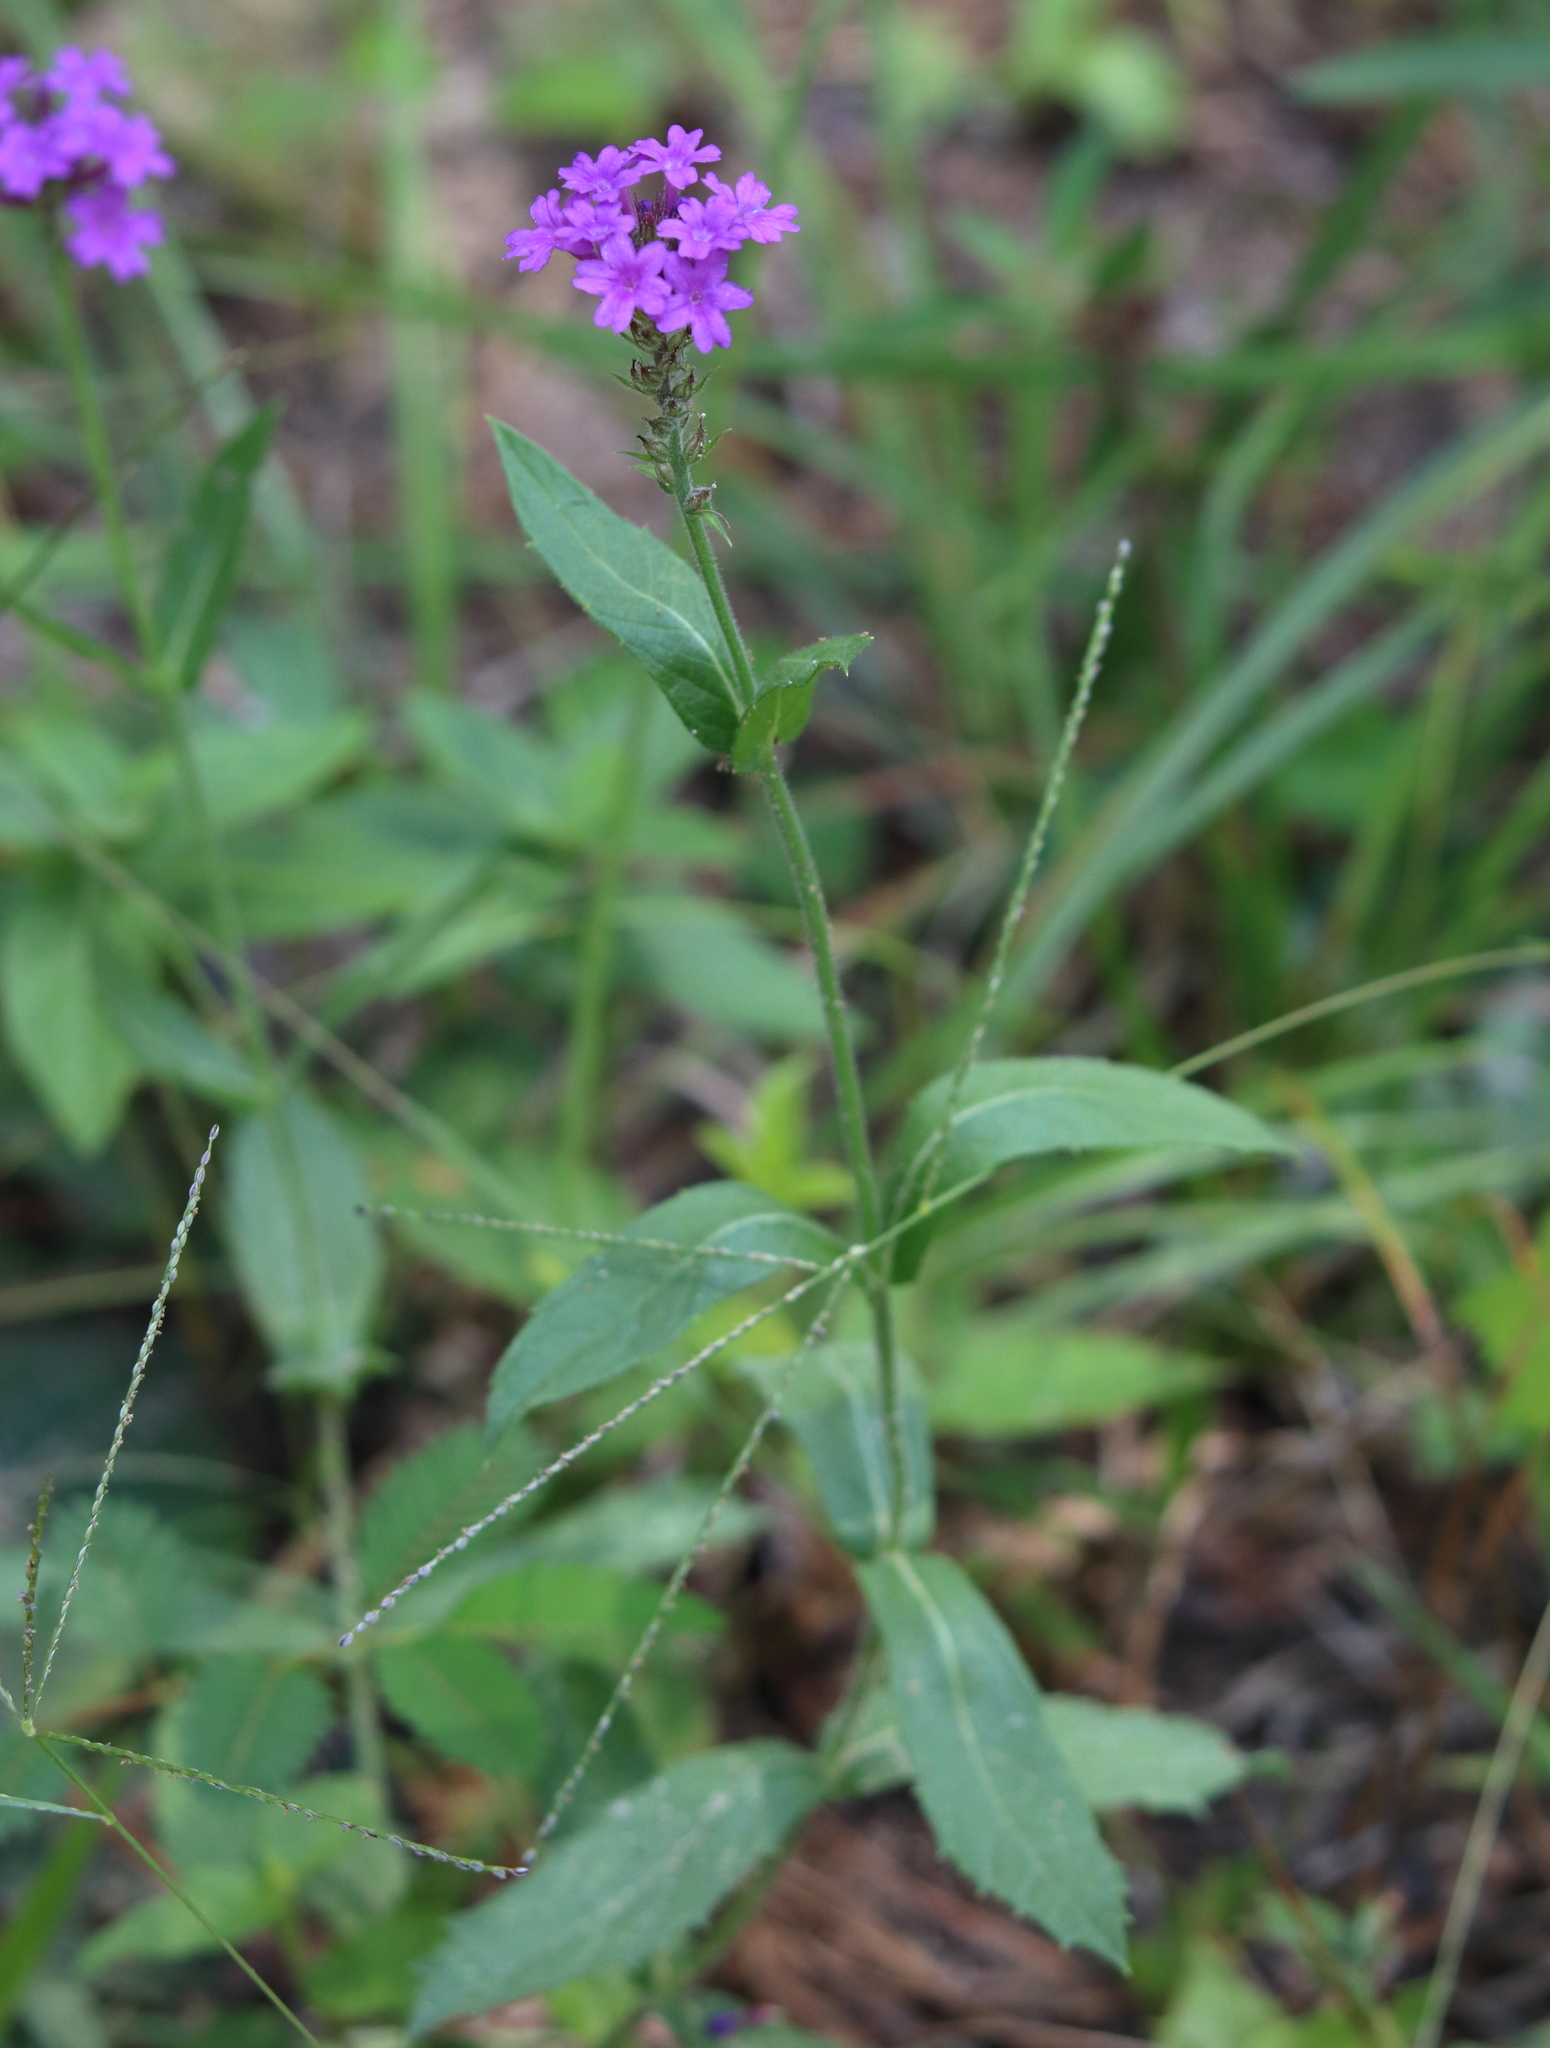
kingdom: Plantae
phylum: Tracheophyta
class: Magnoliopsida
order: Lamiales
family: Verbenaceae
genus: Verbena
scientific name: Verbena rigida
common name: Slender vervain
